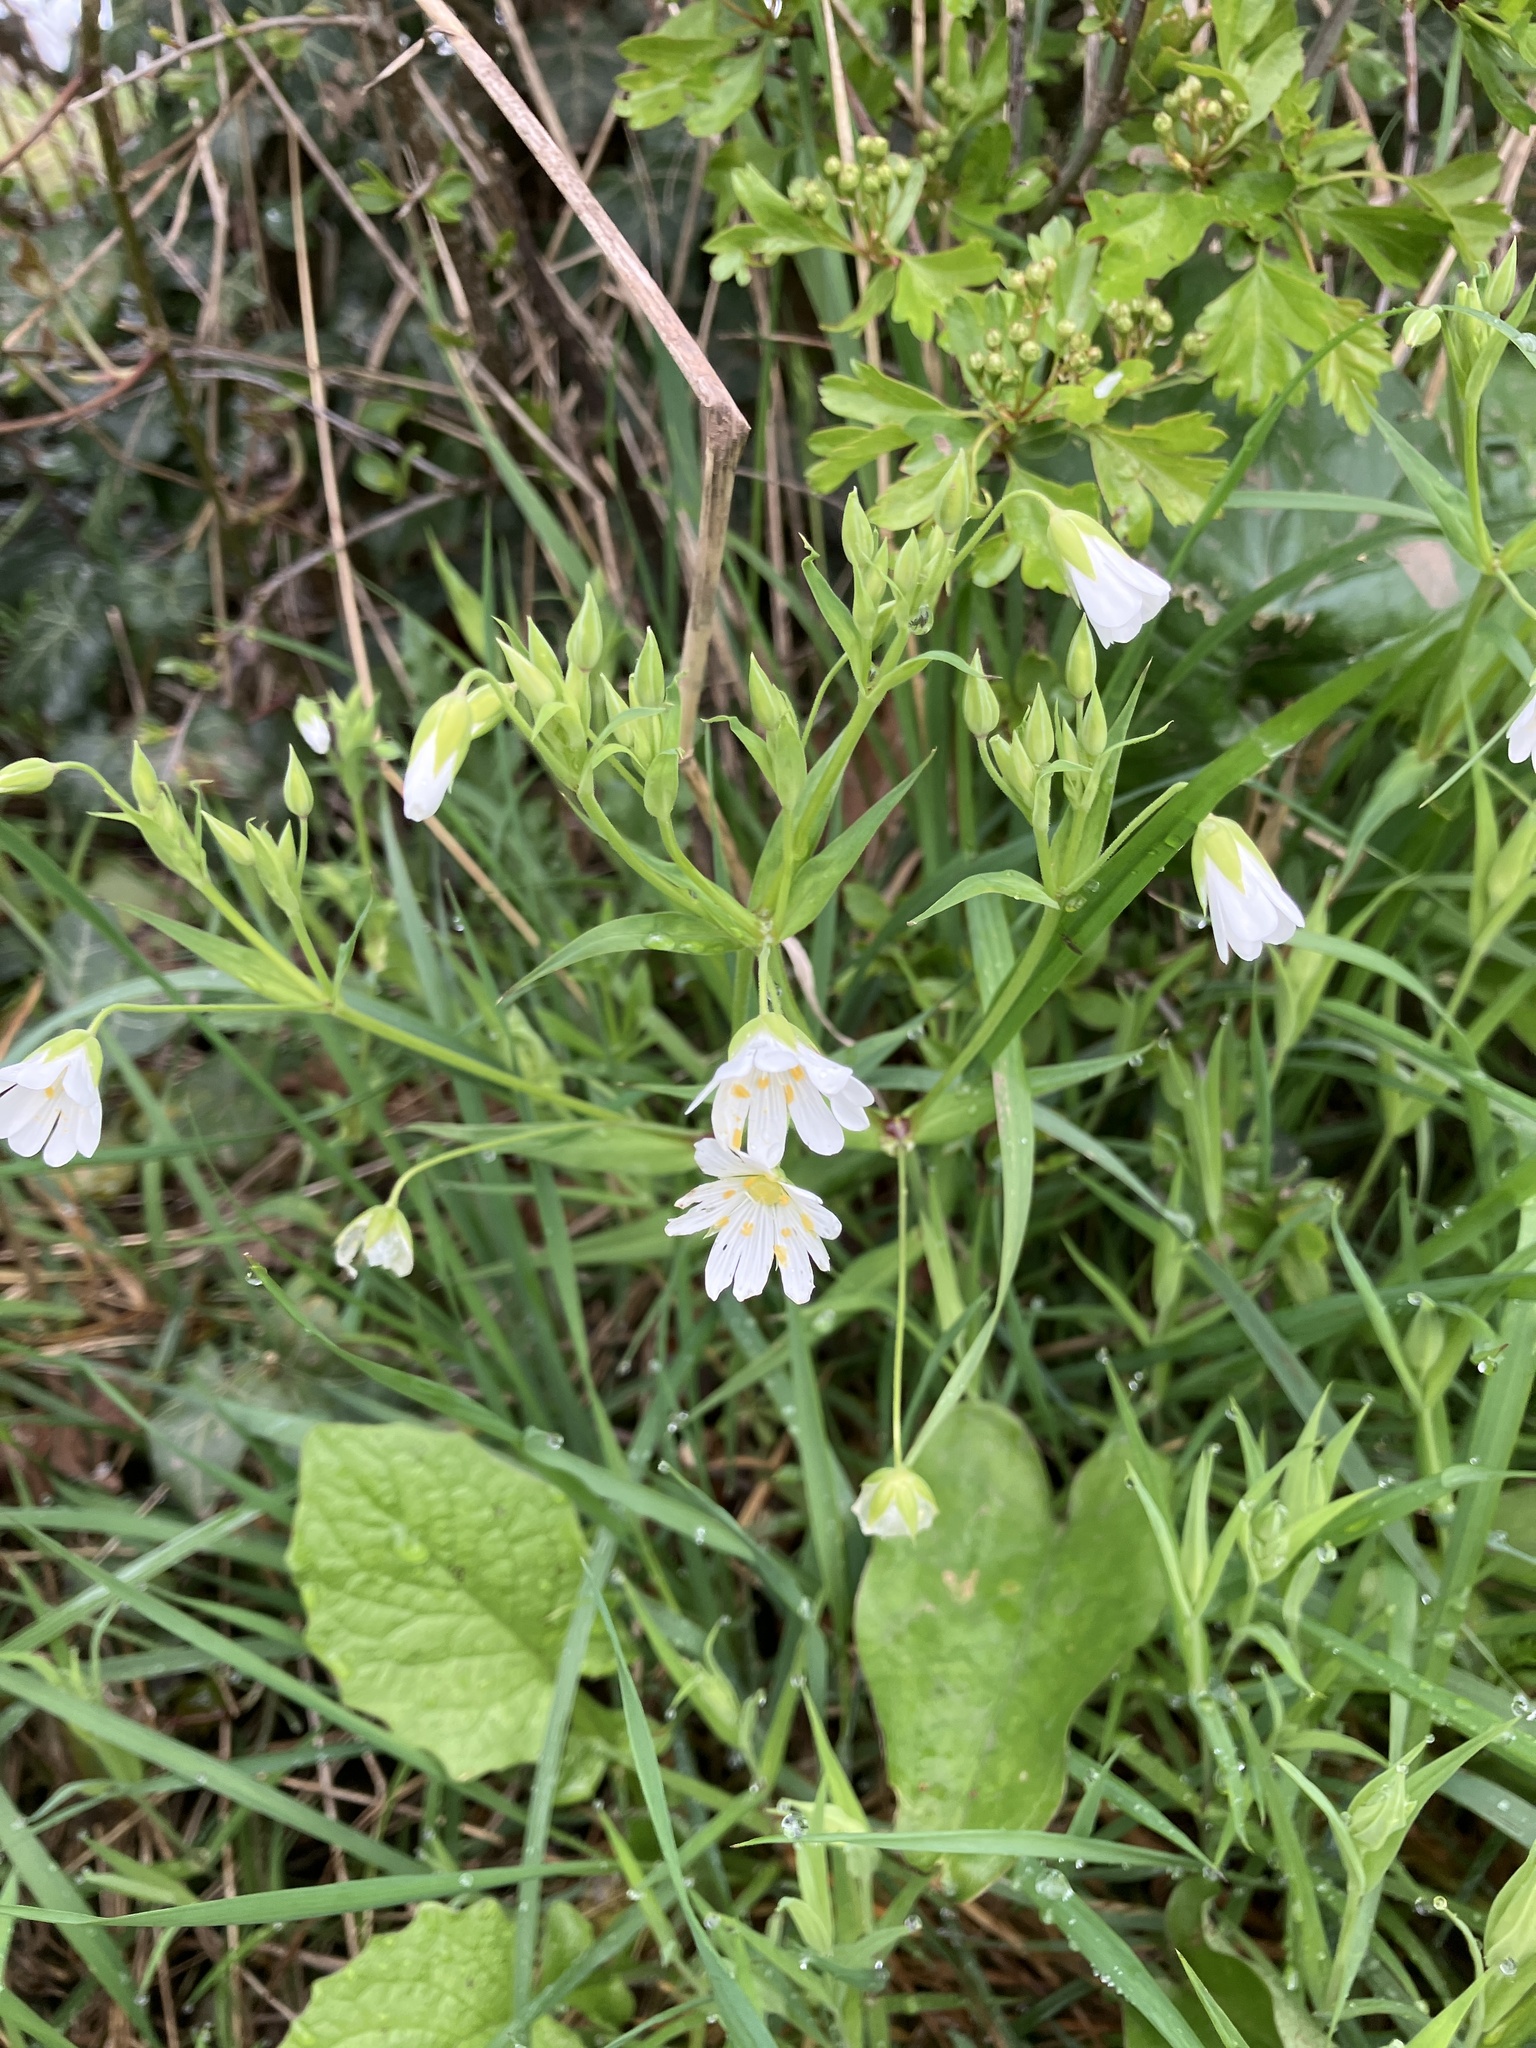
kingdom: Plantae
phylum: Tracheophyta
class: Magnoliopsida
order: Caryophyllales
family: Caryophyllaceae
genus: Rabelera
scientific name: Rabelera holostea
